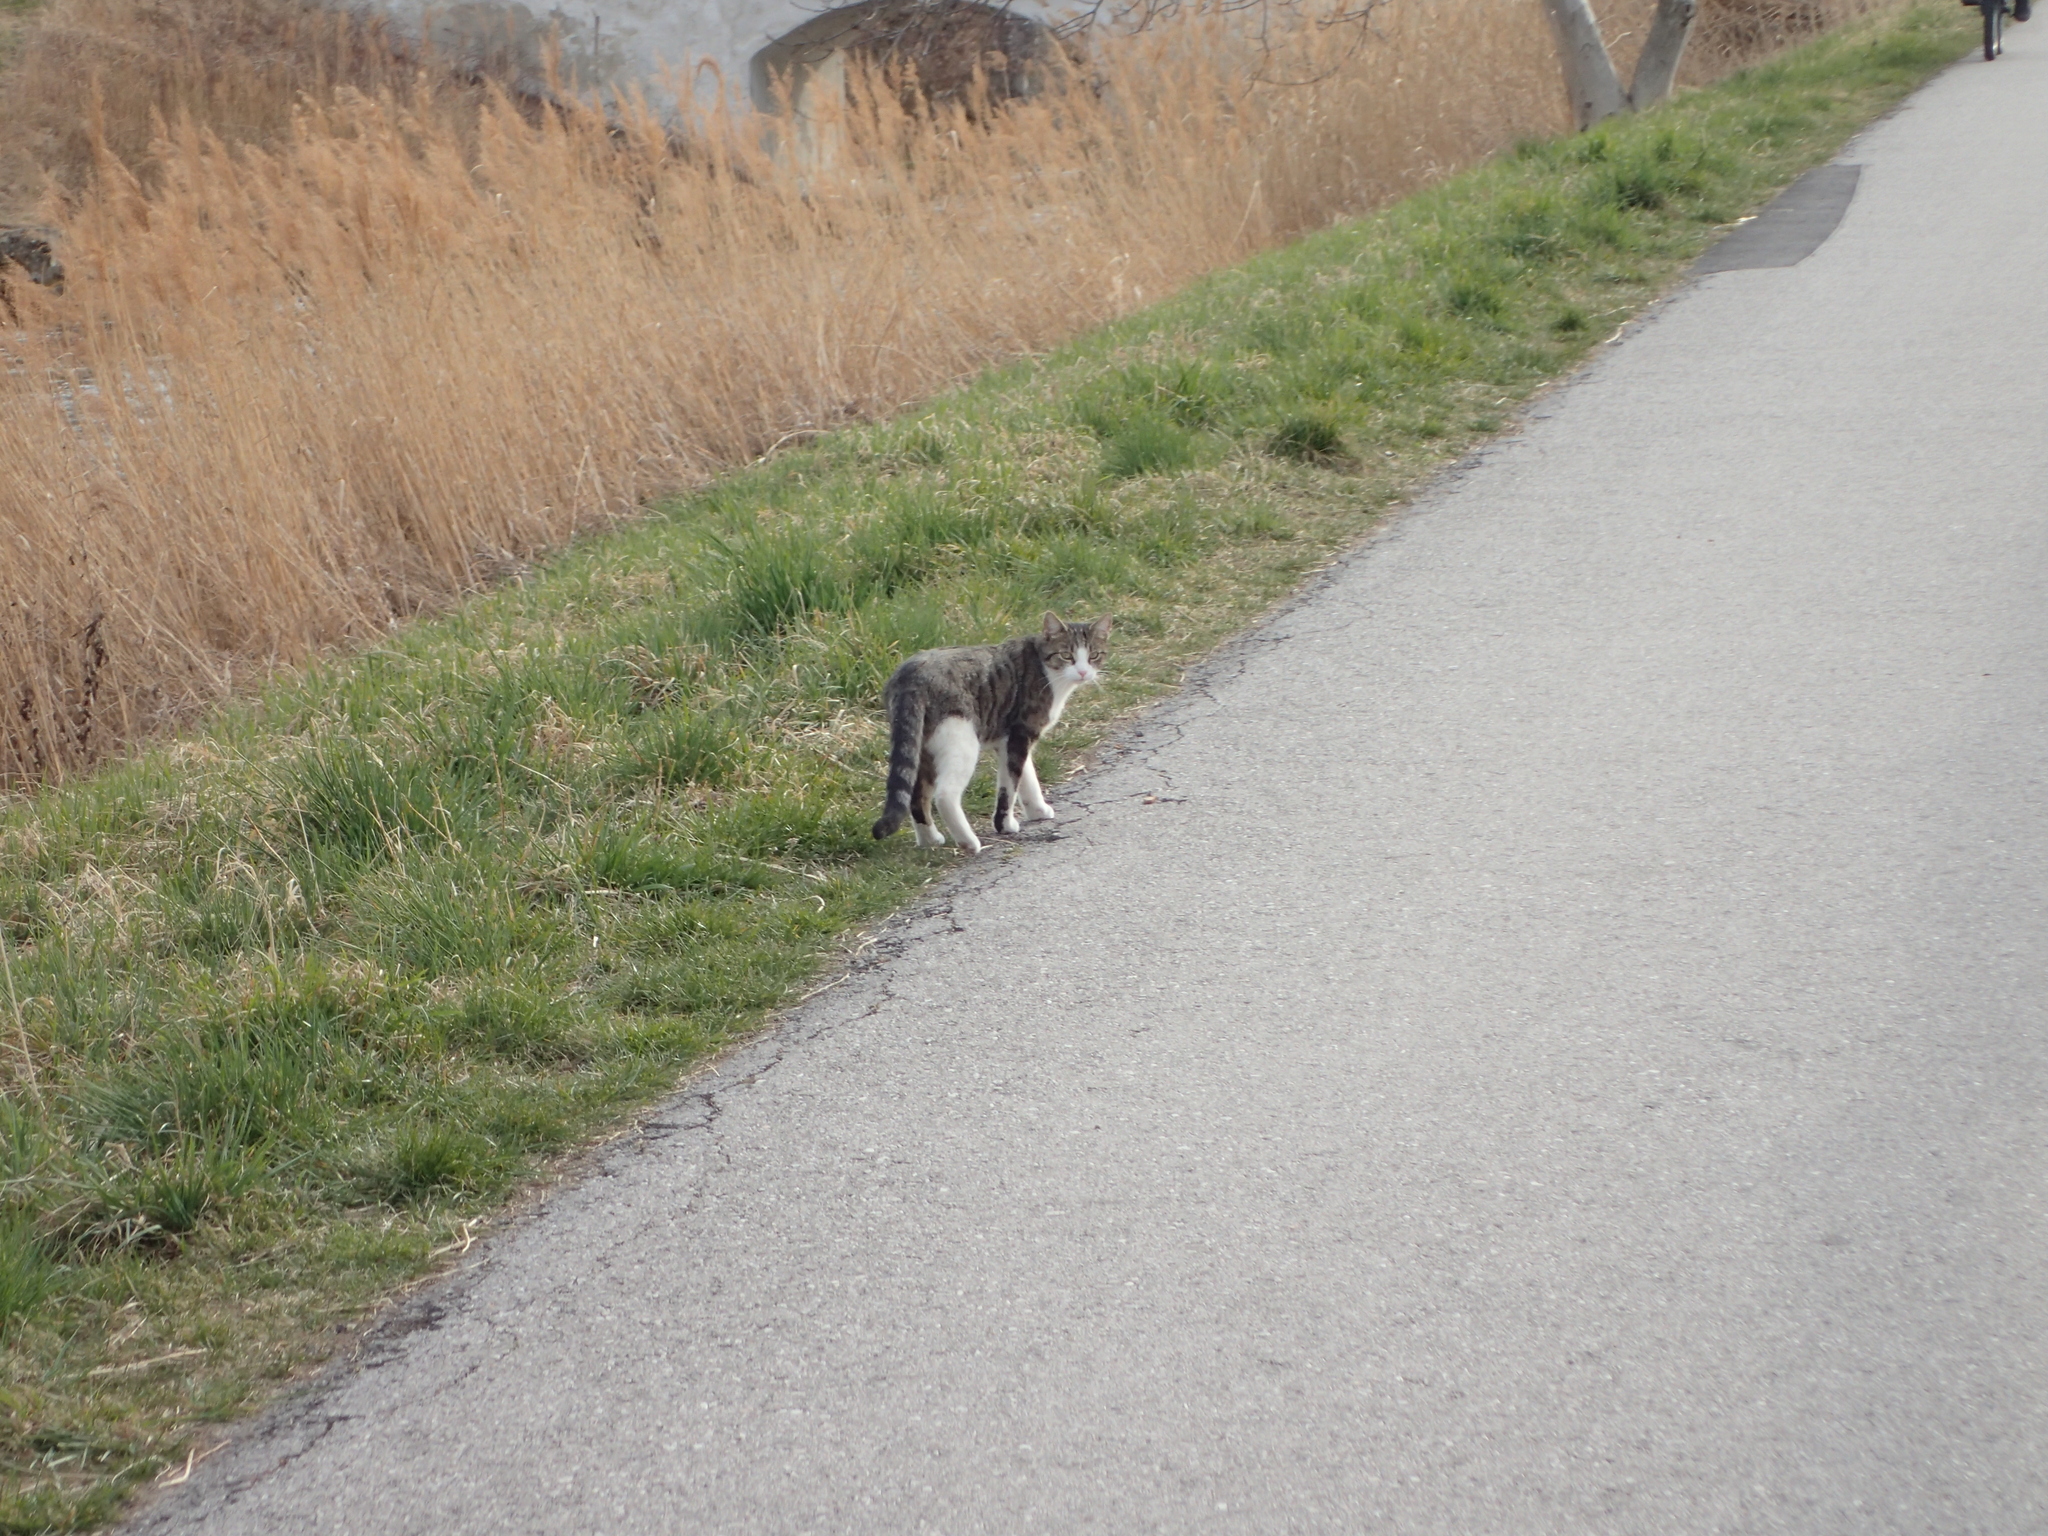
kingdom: Animalia
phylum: Chordata
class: Mammalia
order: Carnivora
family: Felidae
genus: Felis
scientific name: Felis catus
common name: Domestic cat
